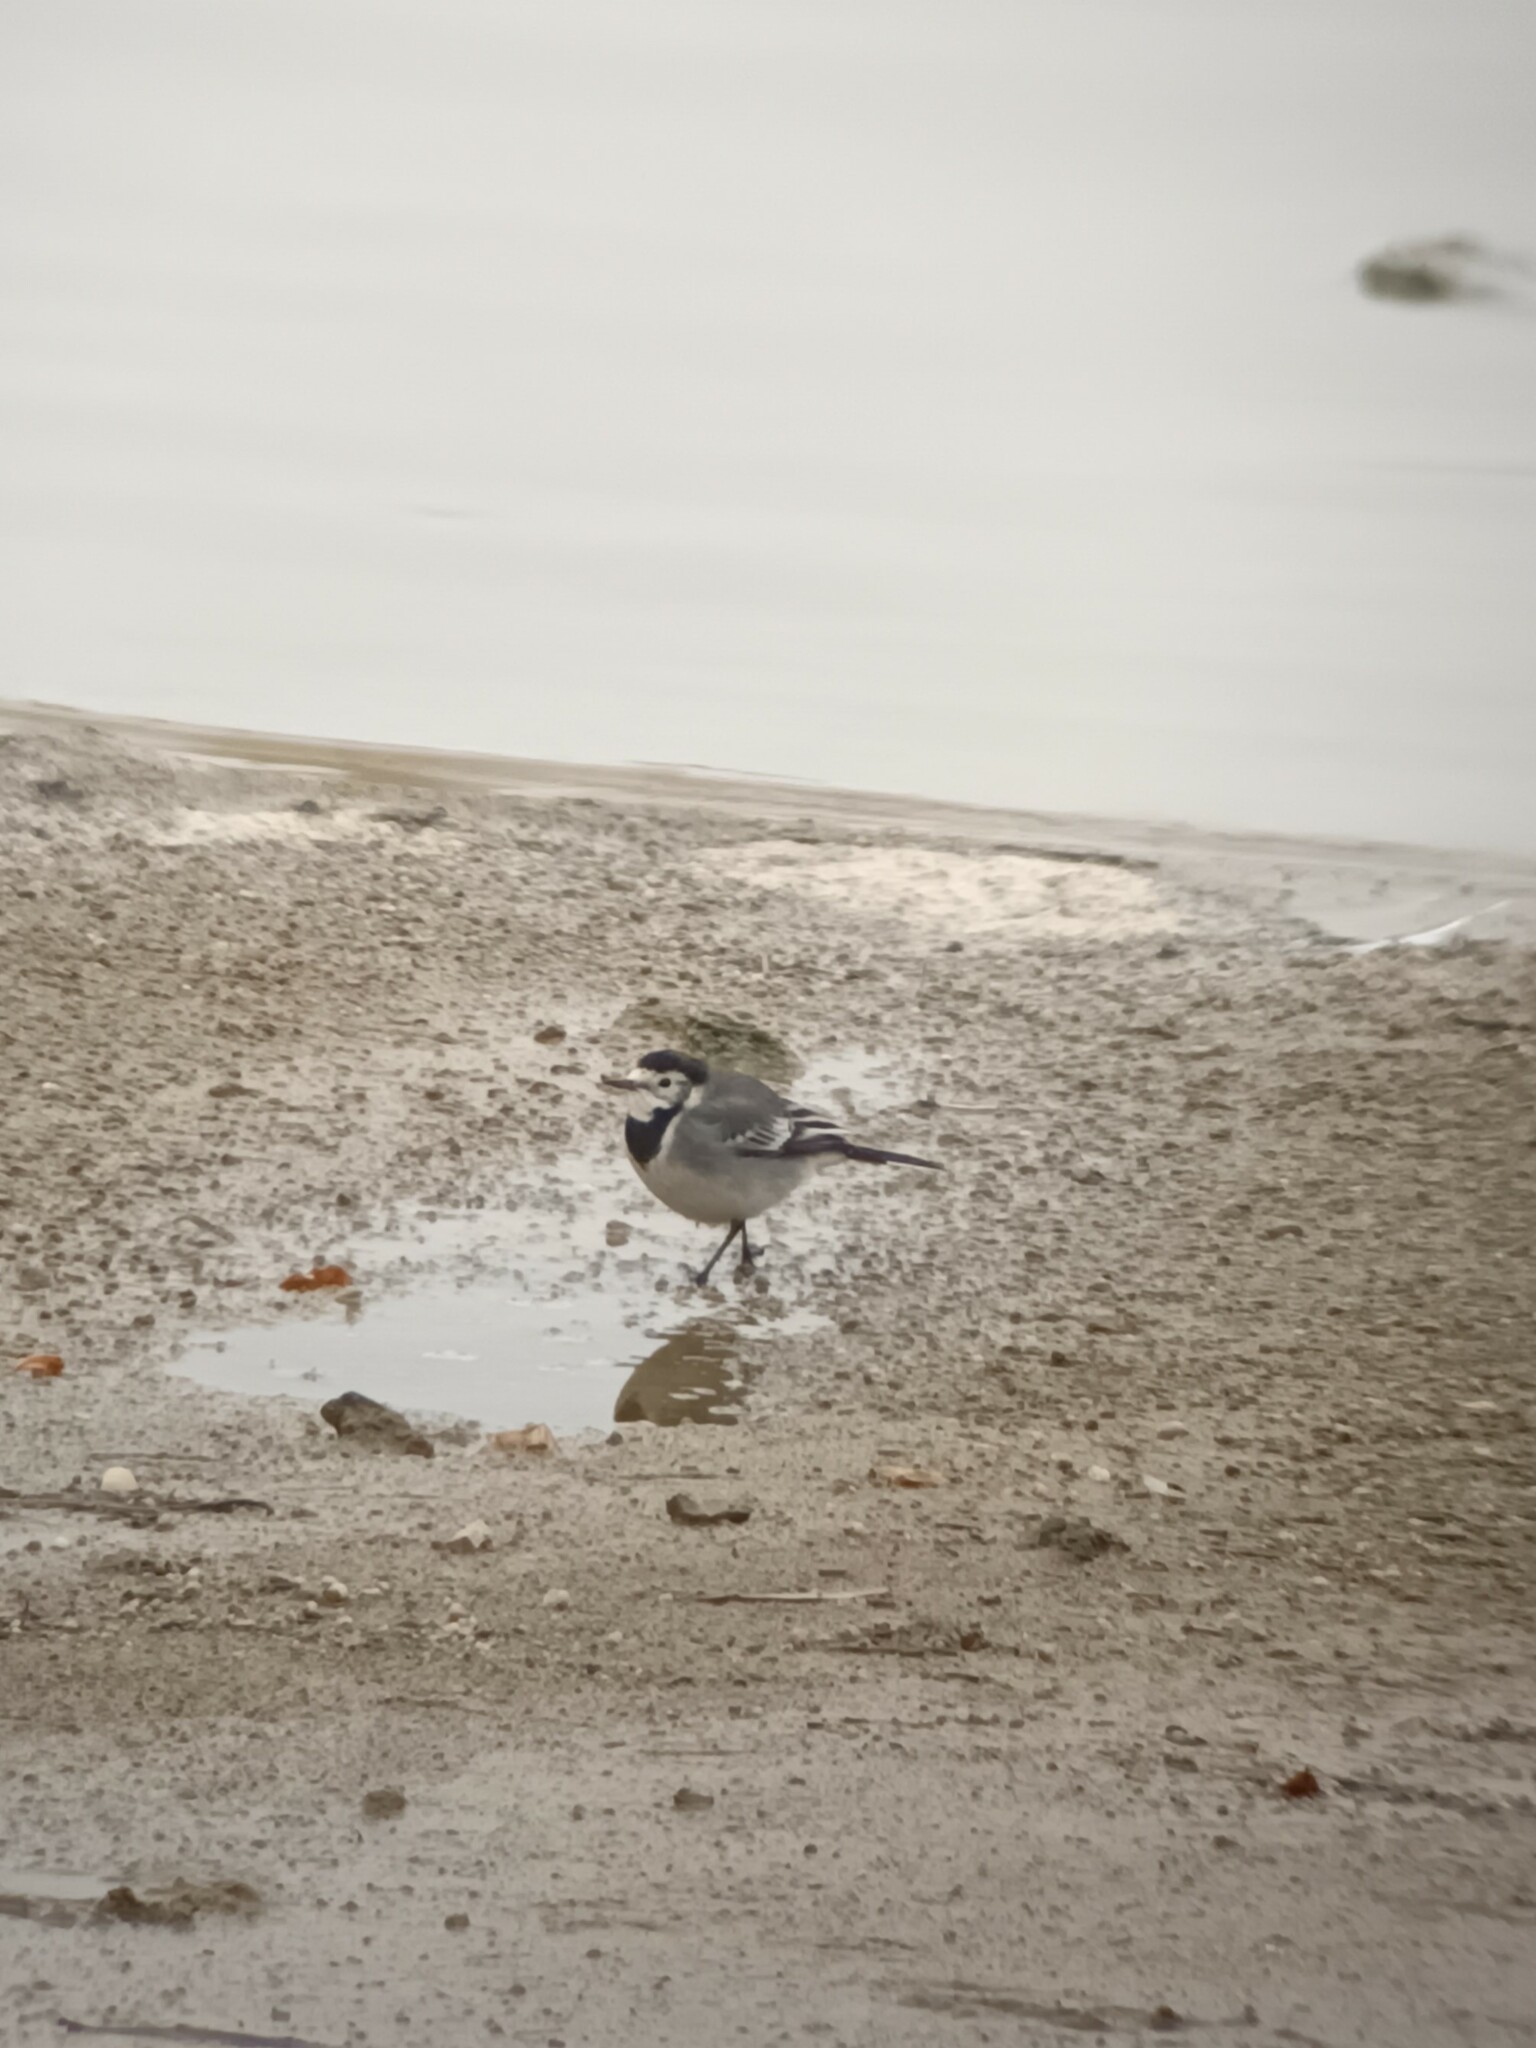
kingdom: Animalia
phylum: Chordata
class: Aves
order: Passeriformes
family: Motacillidae
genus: Motacilla
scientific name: Motacilla alba
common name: White wagtail
